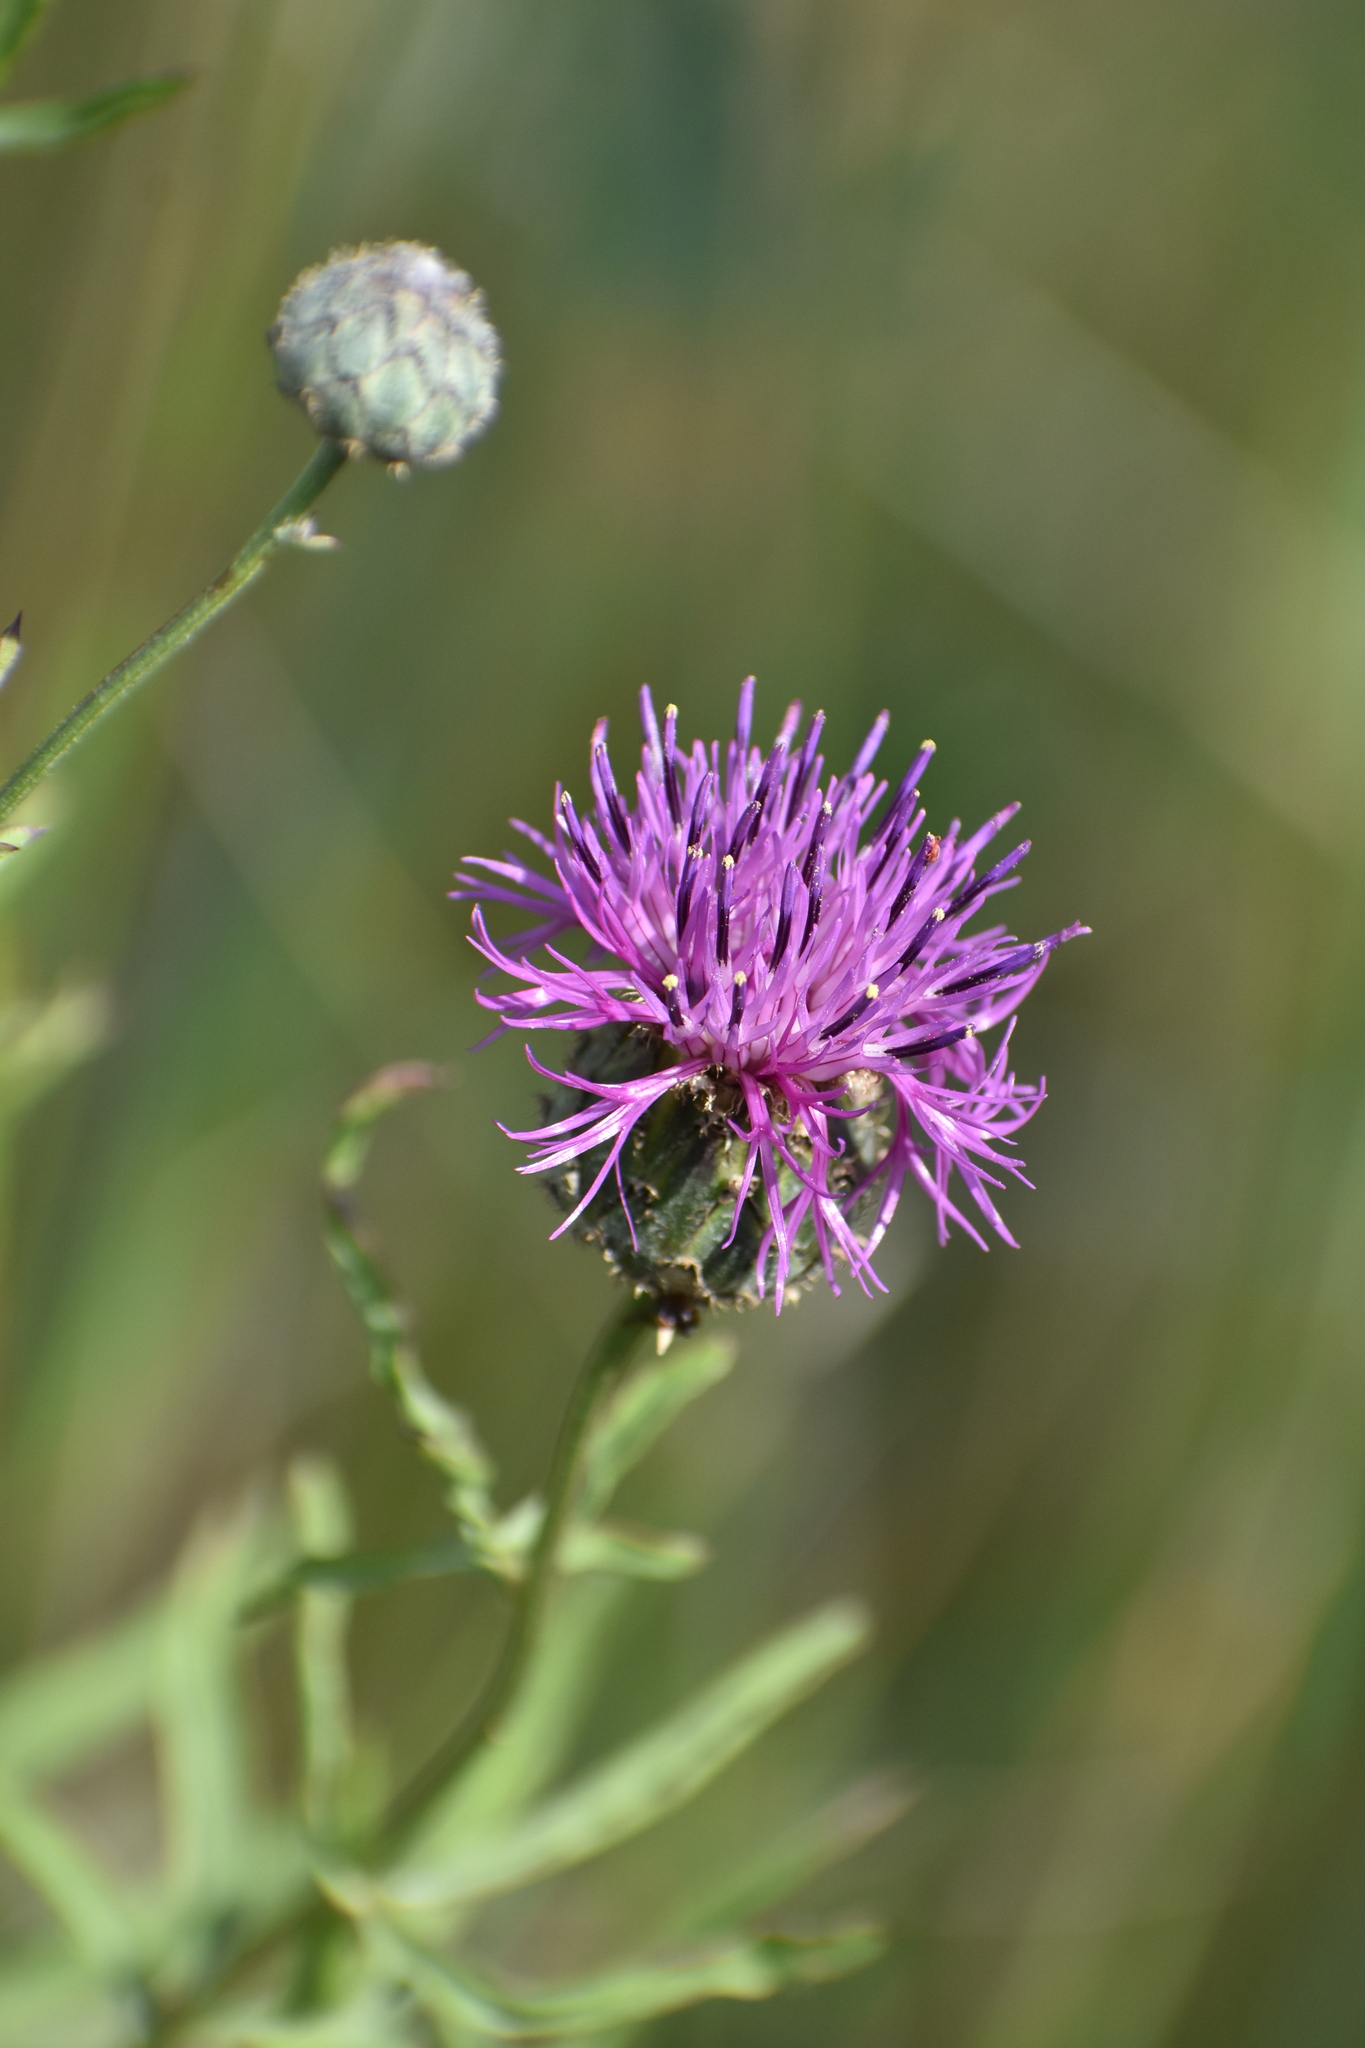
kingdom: Plantae
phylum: Tracheophyta
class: Magnoliopsida
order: Asterales
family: Asteraceae
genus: Centaurea
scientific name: Centaurea scabiosa
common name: Greater knapweed
